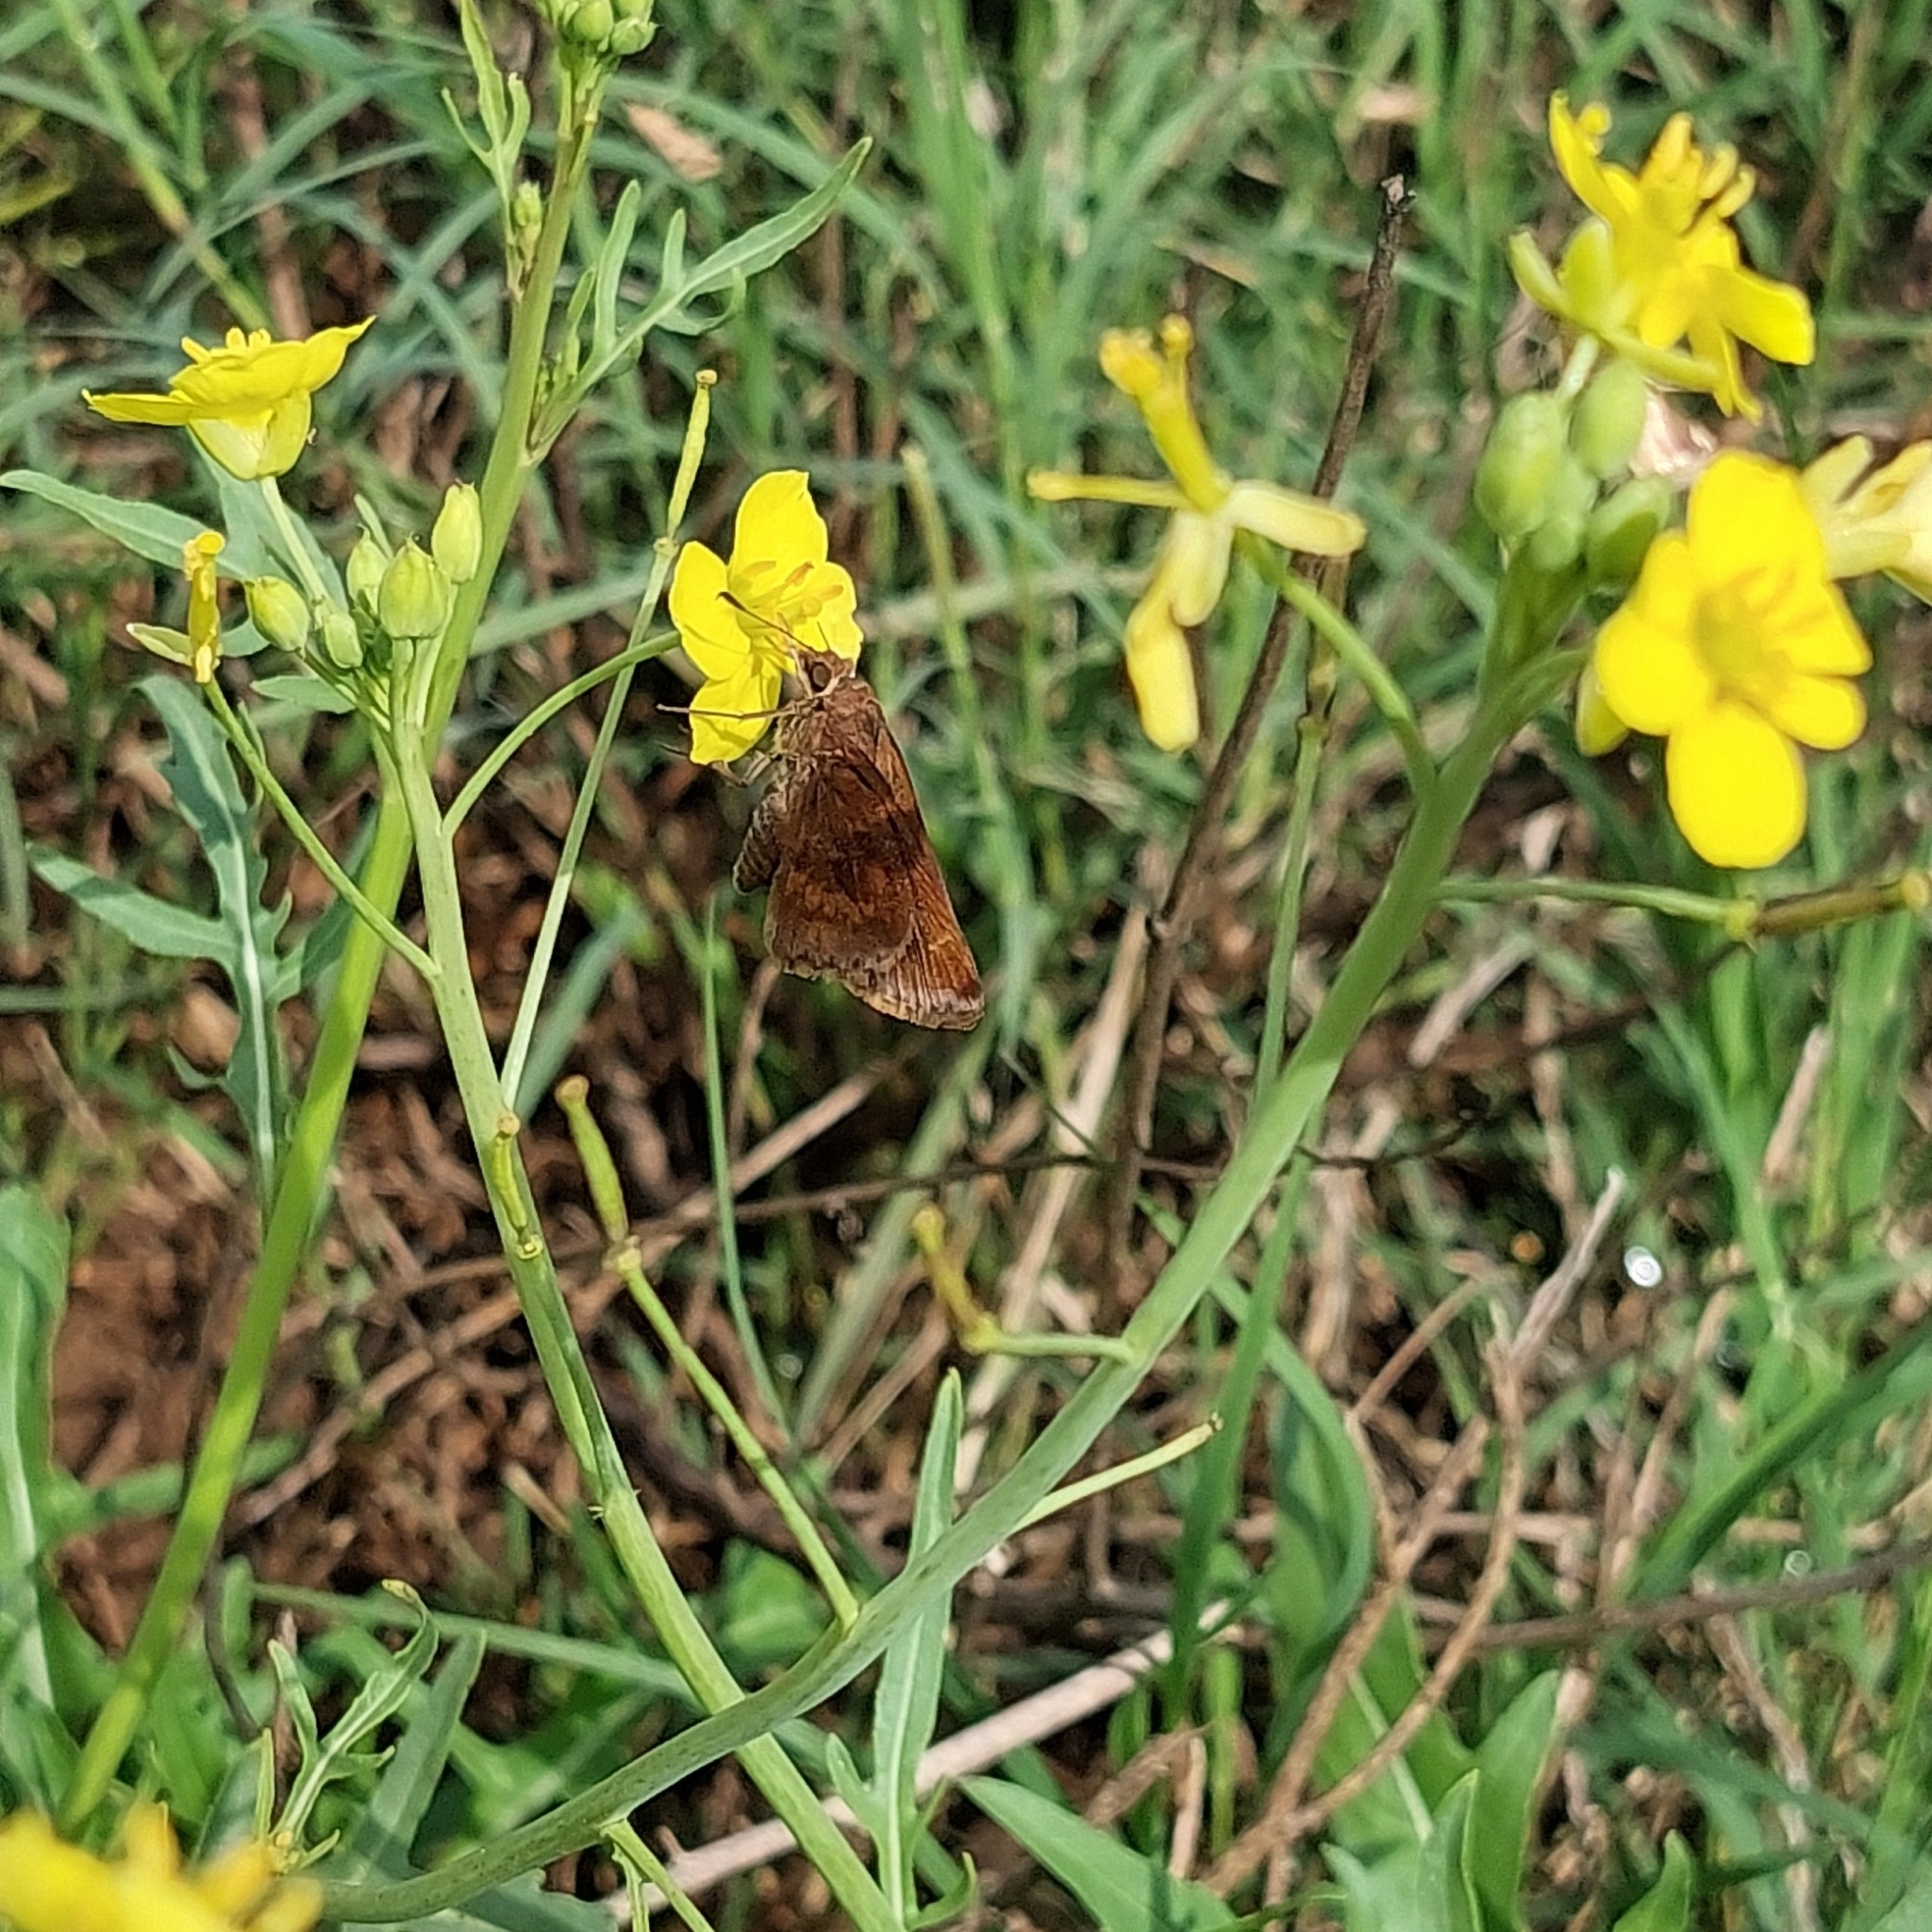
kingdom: Animalia
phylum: Arthropoda
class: Insecta
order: Lepidoptera
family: Hesperiidae
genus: Quinta
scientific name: Quinta cannae
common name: Canna skipper
